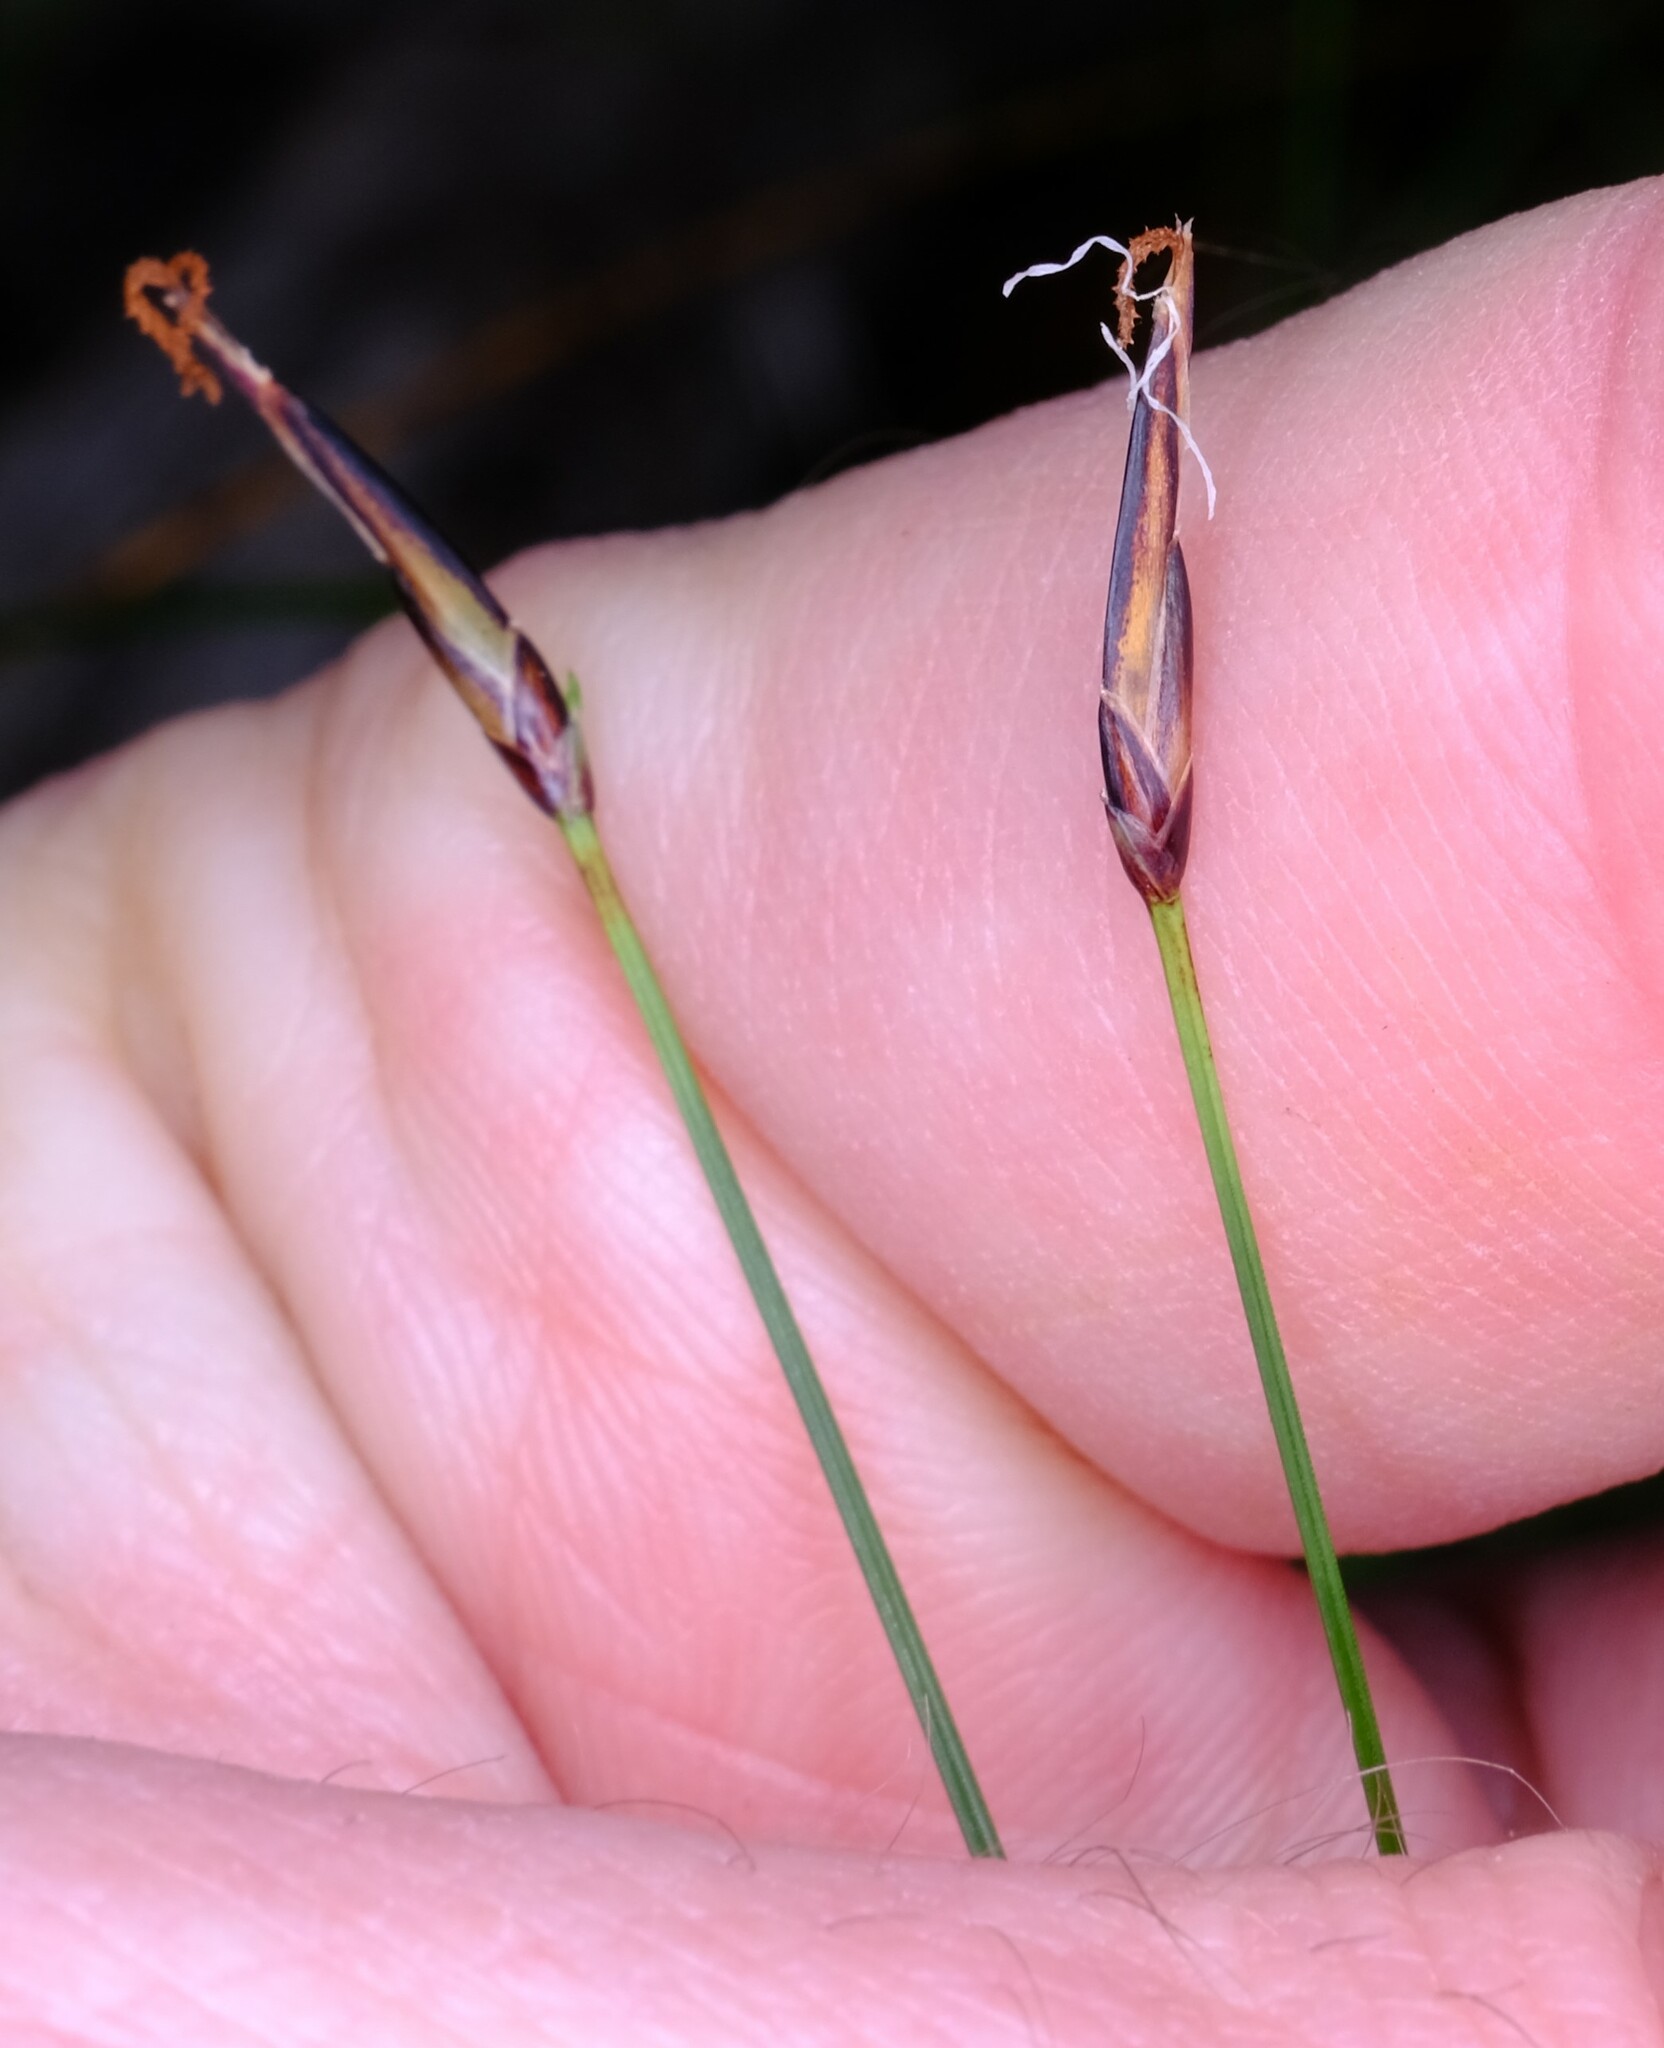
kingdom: Plantae
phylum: Tracheophyta
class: Liliopsida
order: Poales
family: Cyperaceae
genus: Schoenus
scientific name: Schoenus lepidosperma
